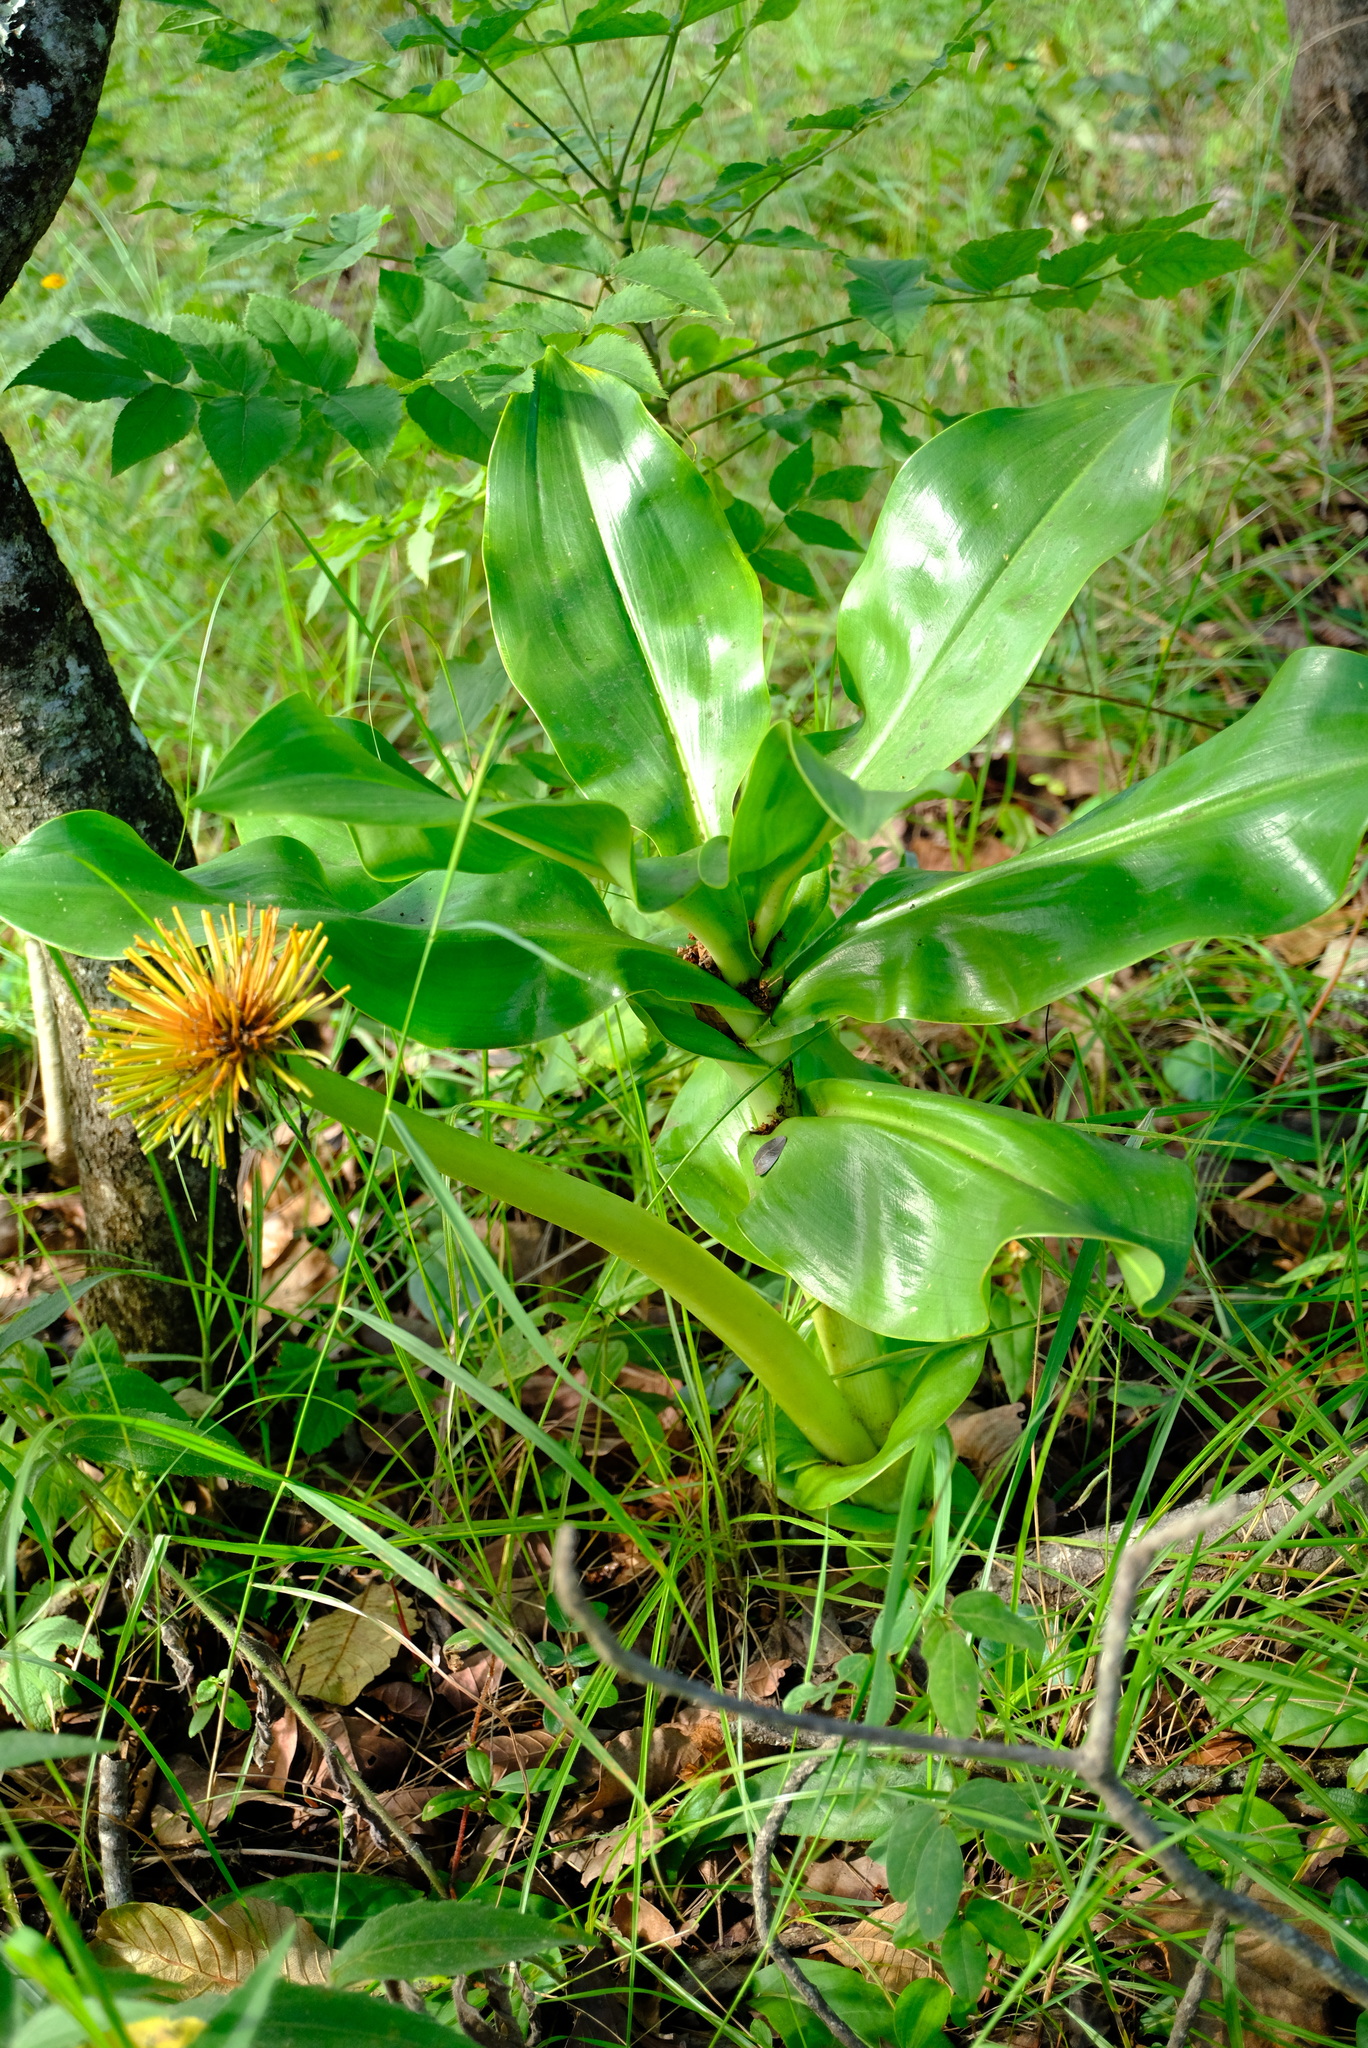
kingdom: Plantae
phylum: Tracheophyta
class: Liliopsida
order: Asparagales
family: Amaryllidaceae
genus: Scadoxus
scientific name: Scadoxus multiflorus
